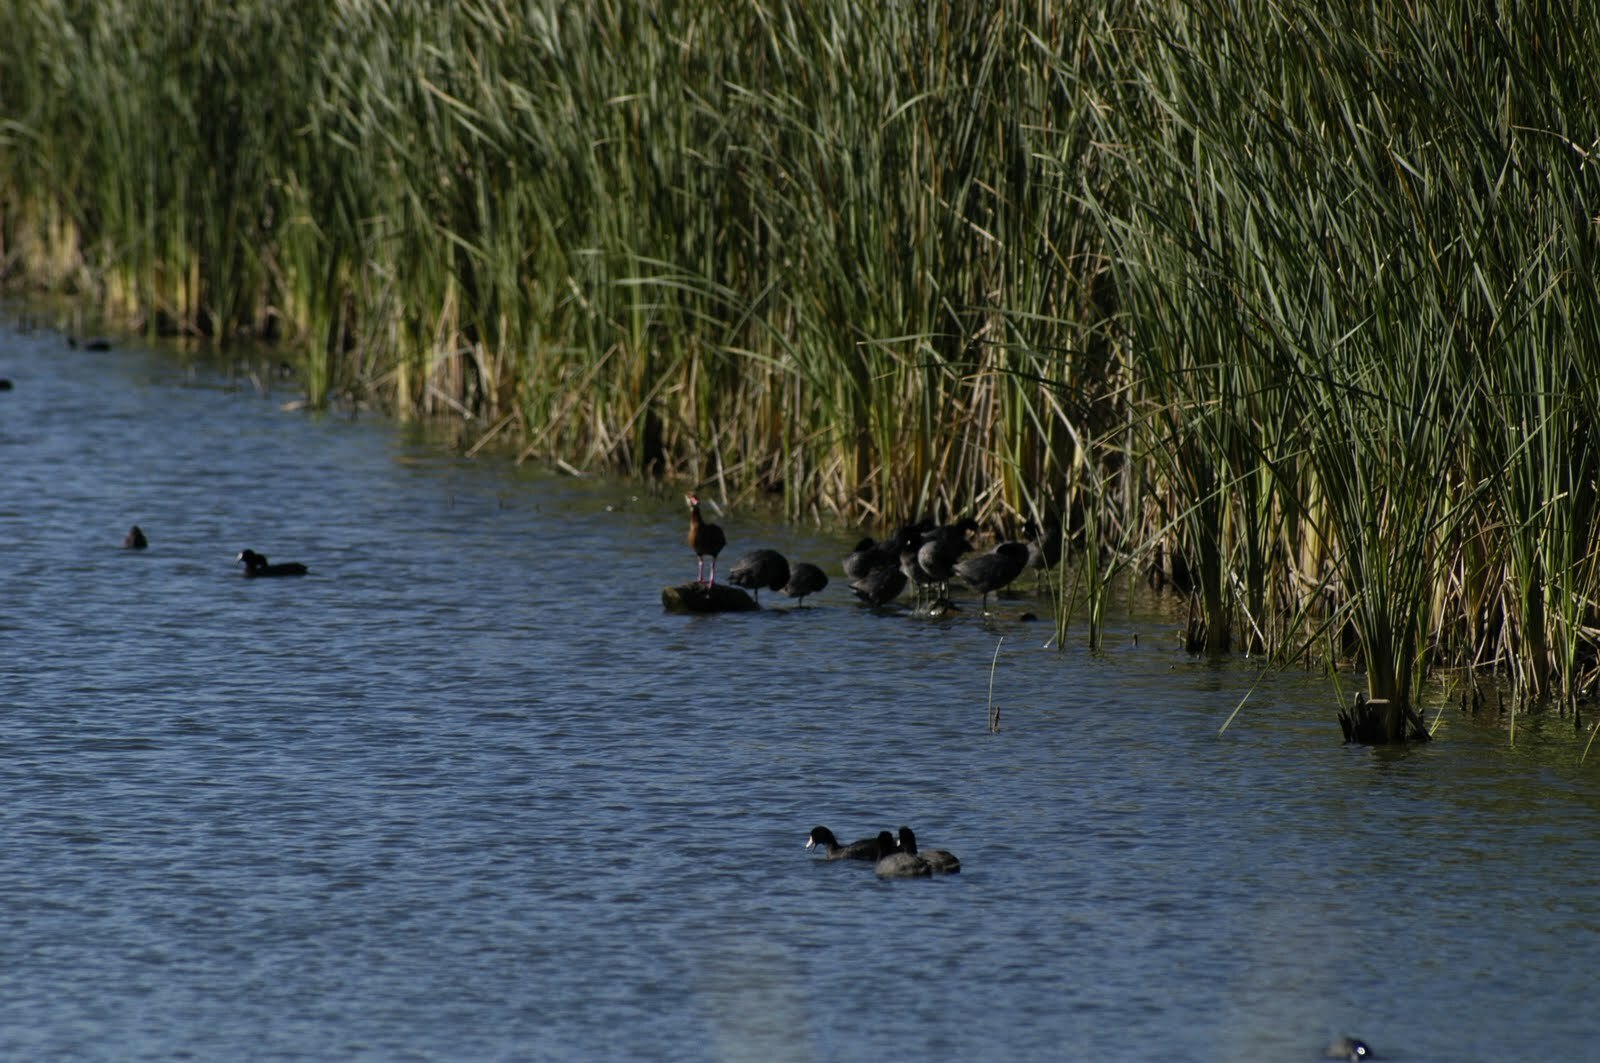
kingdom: Animalia
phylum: Chordata
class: Aves
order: Gruiformes
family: Rallidae
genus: Fulica
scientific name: Fulica americana
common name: American coot
